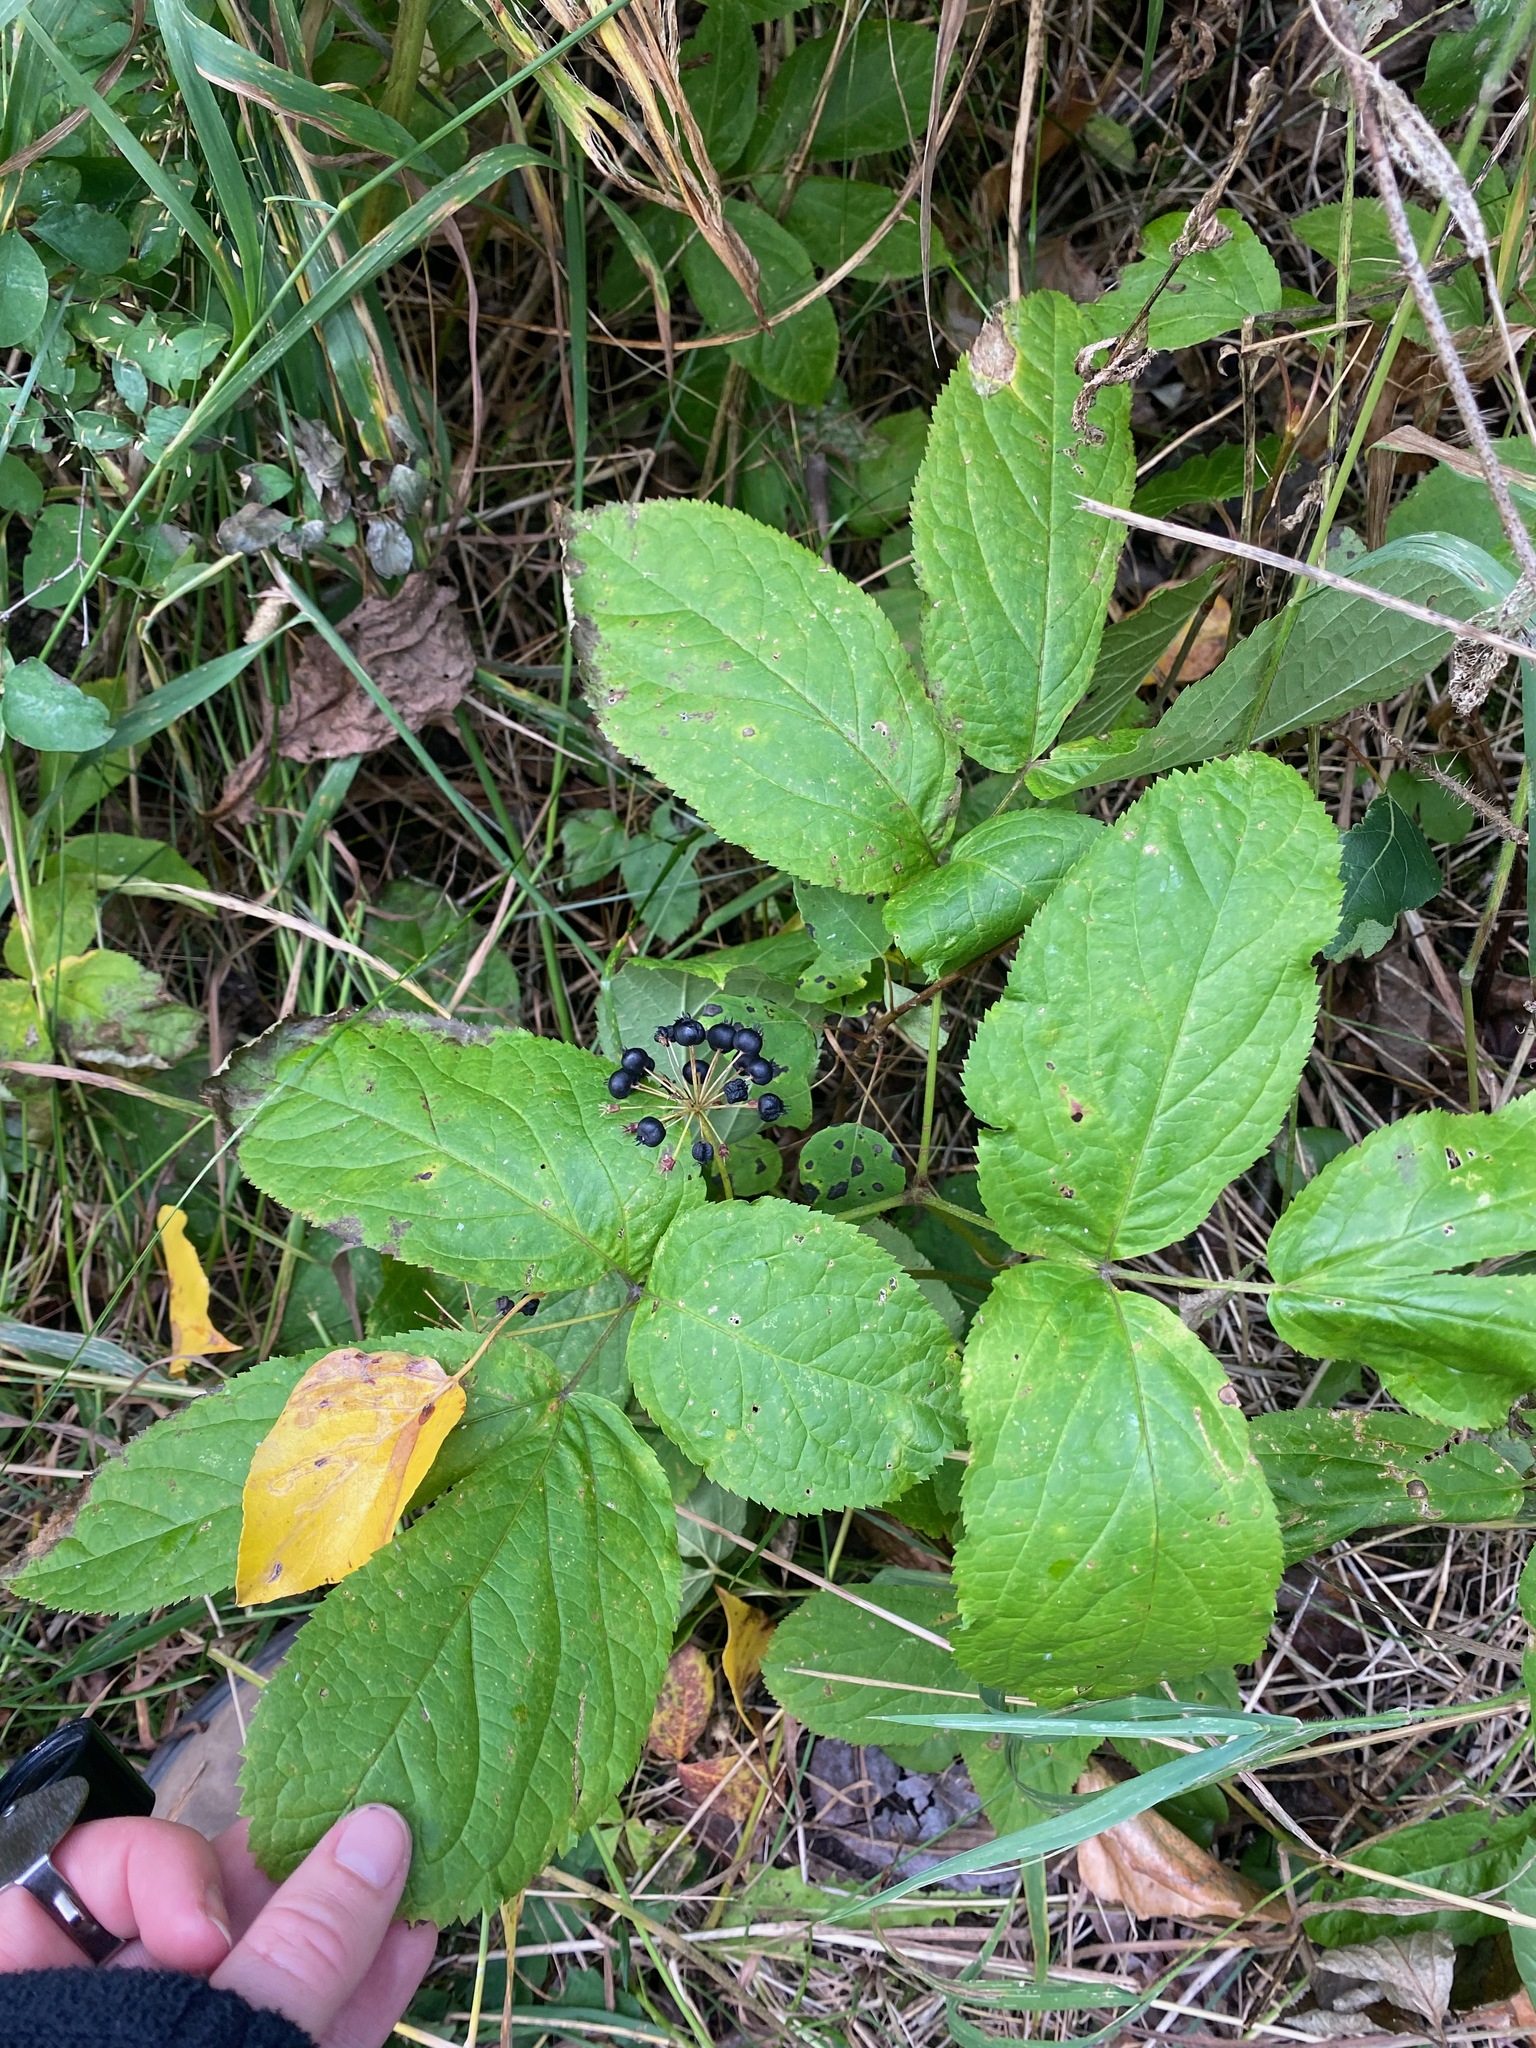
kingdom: Plantae
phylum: Tracheophyta
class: Magnoliopsida
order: Apiales
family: Araliaceae
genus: Aralia
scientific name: Aralia nudicaulis
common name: Wild sarsaparilla
